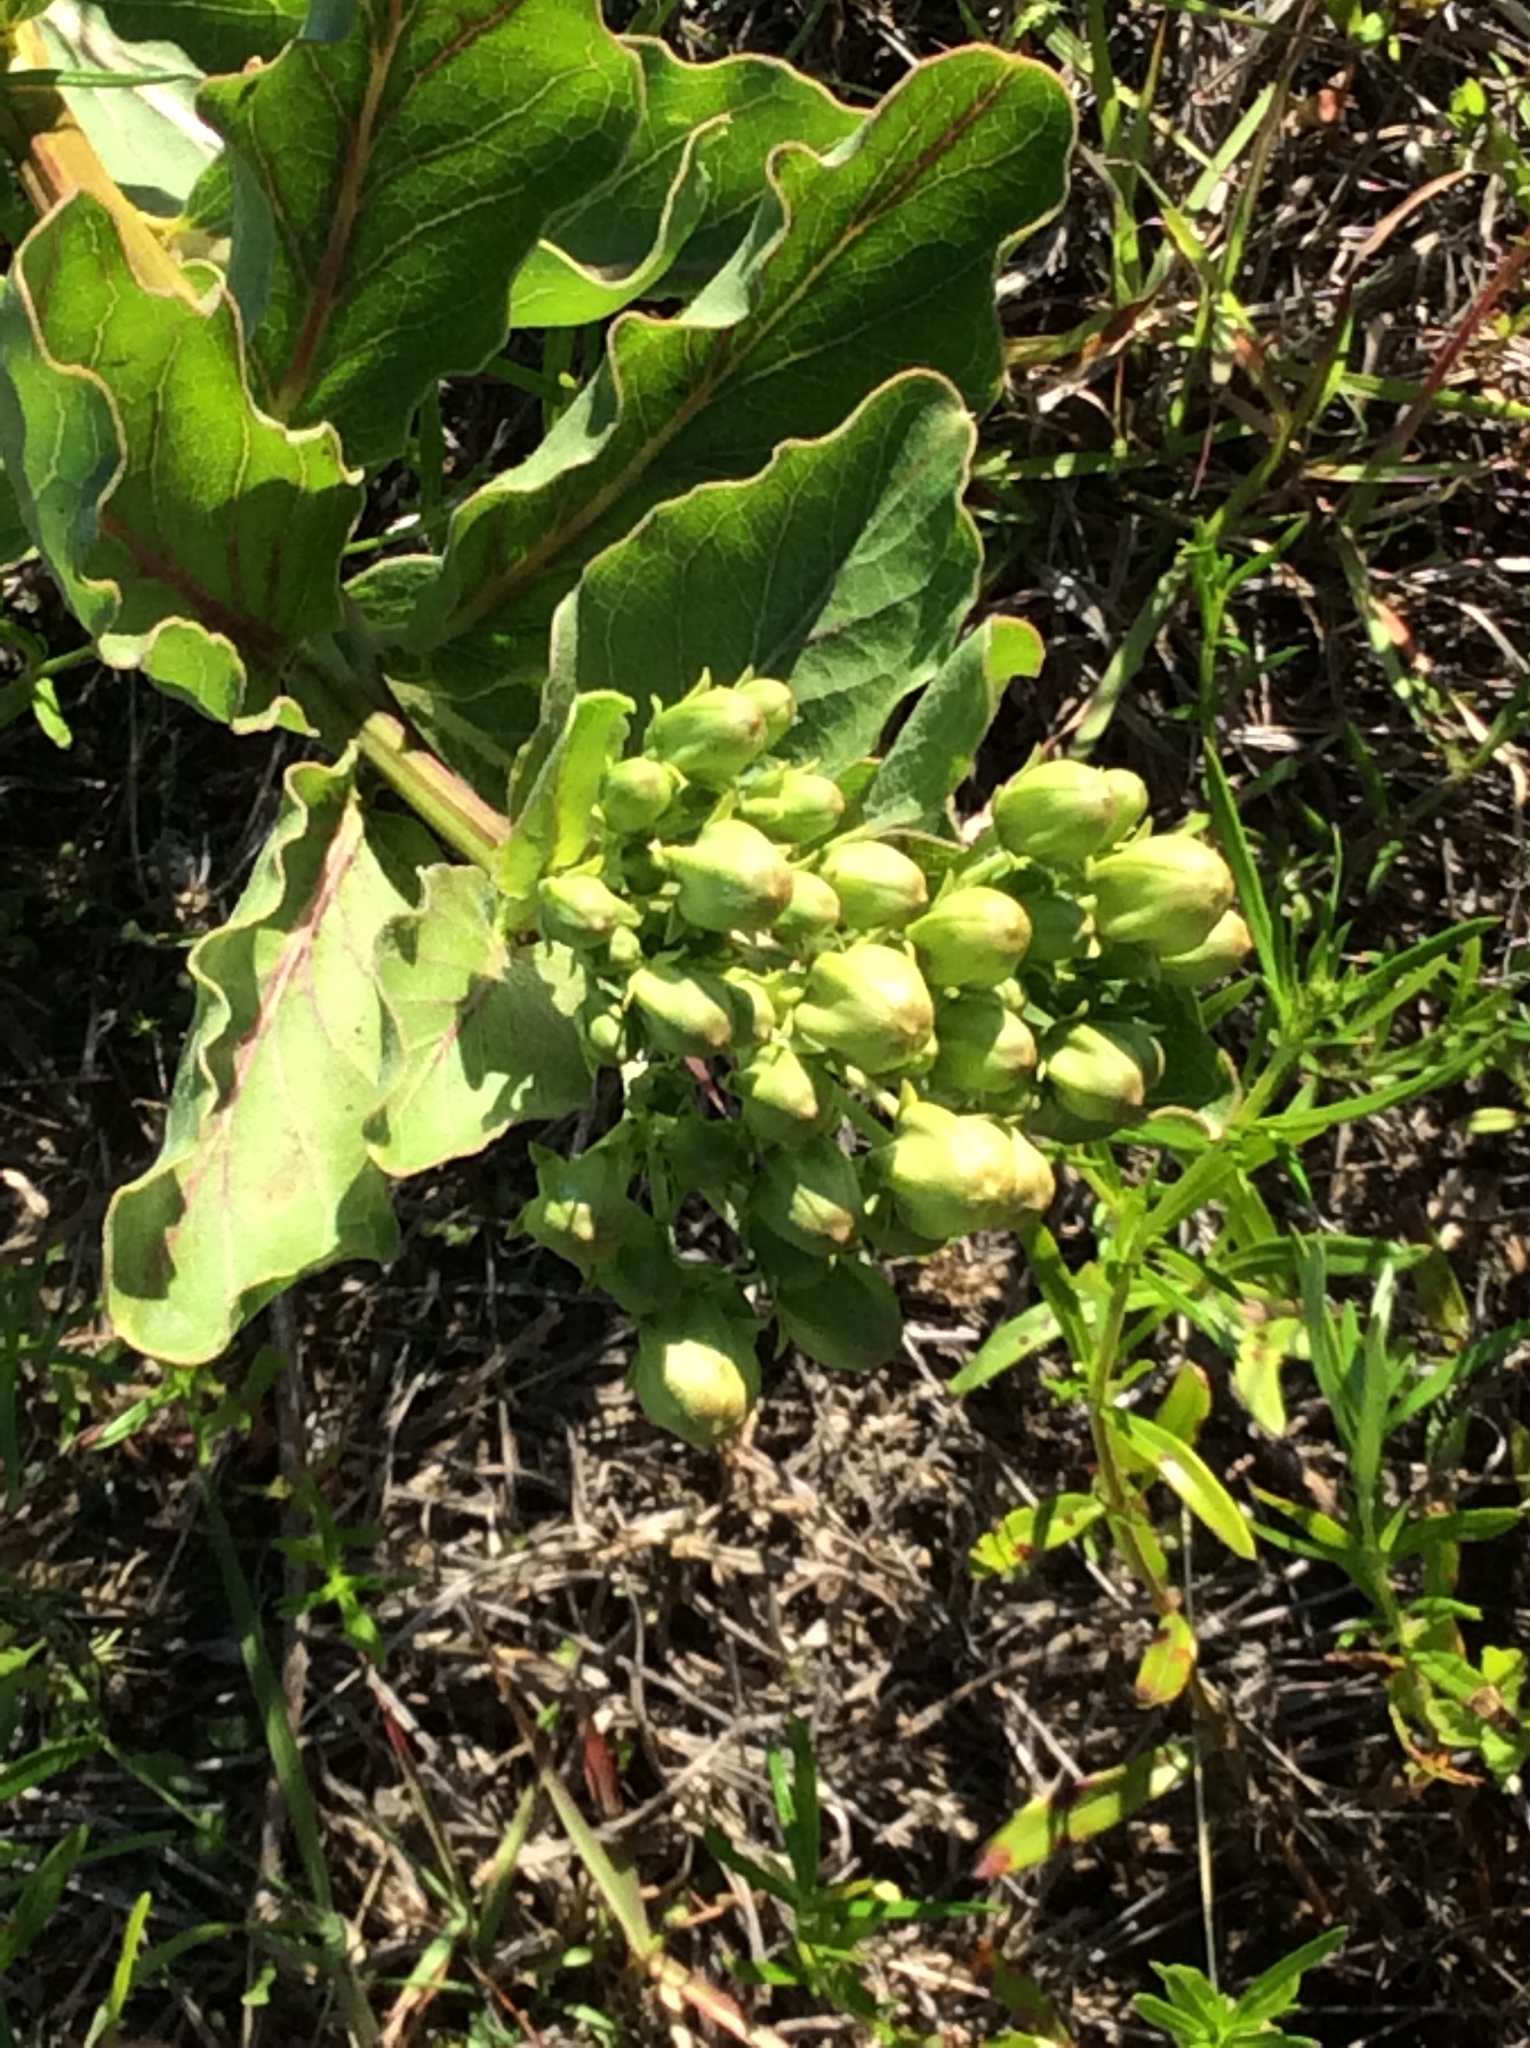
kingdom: Plantae
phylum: Tracheophyta
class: Magnoliopsida
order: Gentianales
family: Apocynaceae
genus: Asclepias
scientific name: Asclepias viridis
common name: Antelope-horns
